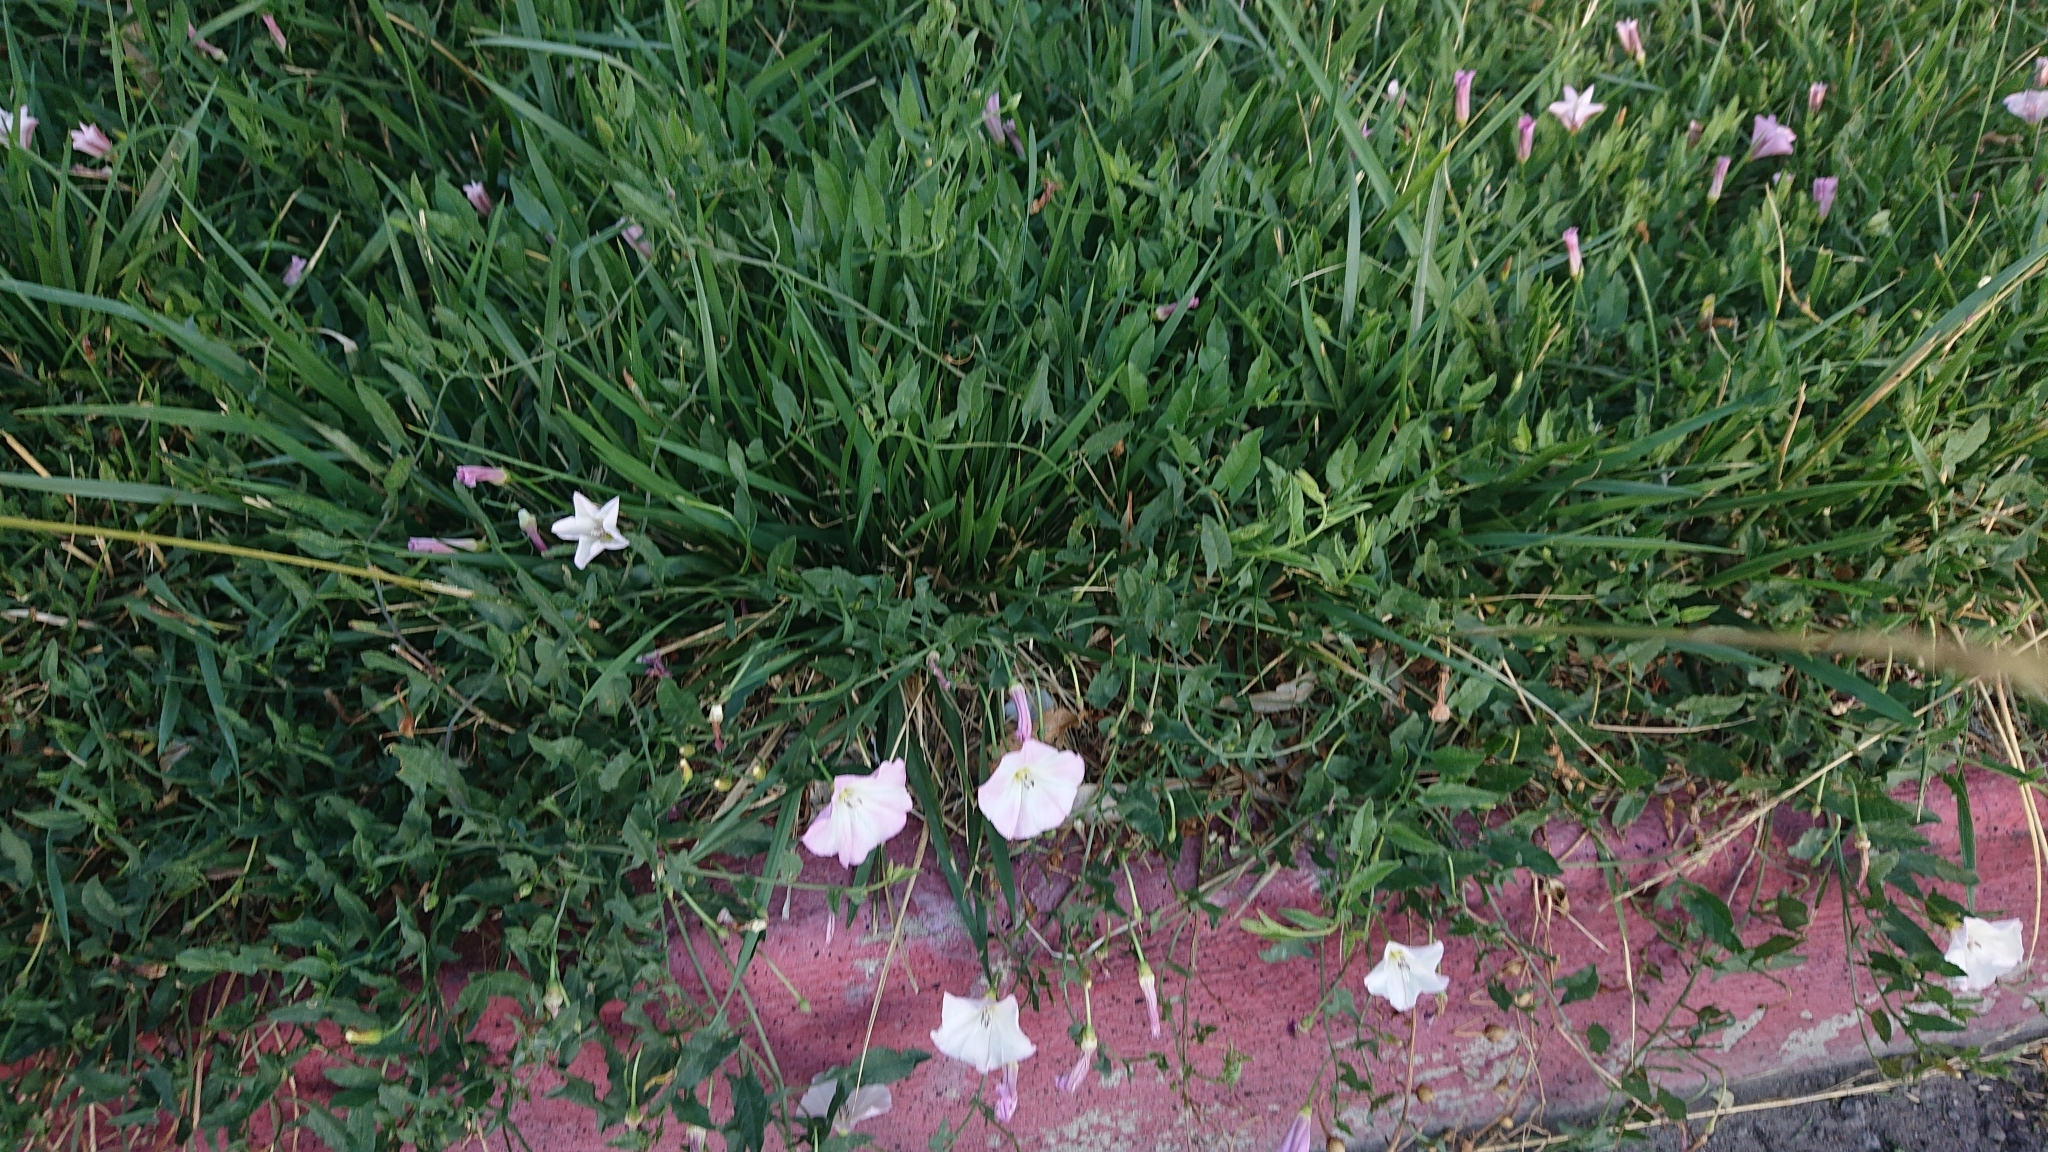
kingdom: Plantae
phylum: Tracheophyta
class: Magnoliopsida
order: Solanales
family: Convolvulaceae
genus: Convolvulus
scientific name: Convolvulus arvensis
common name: Field bindweed
